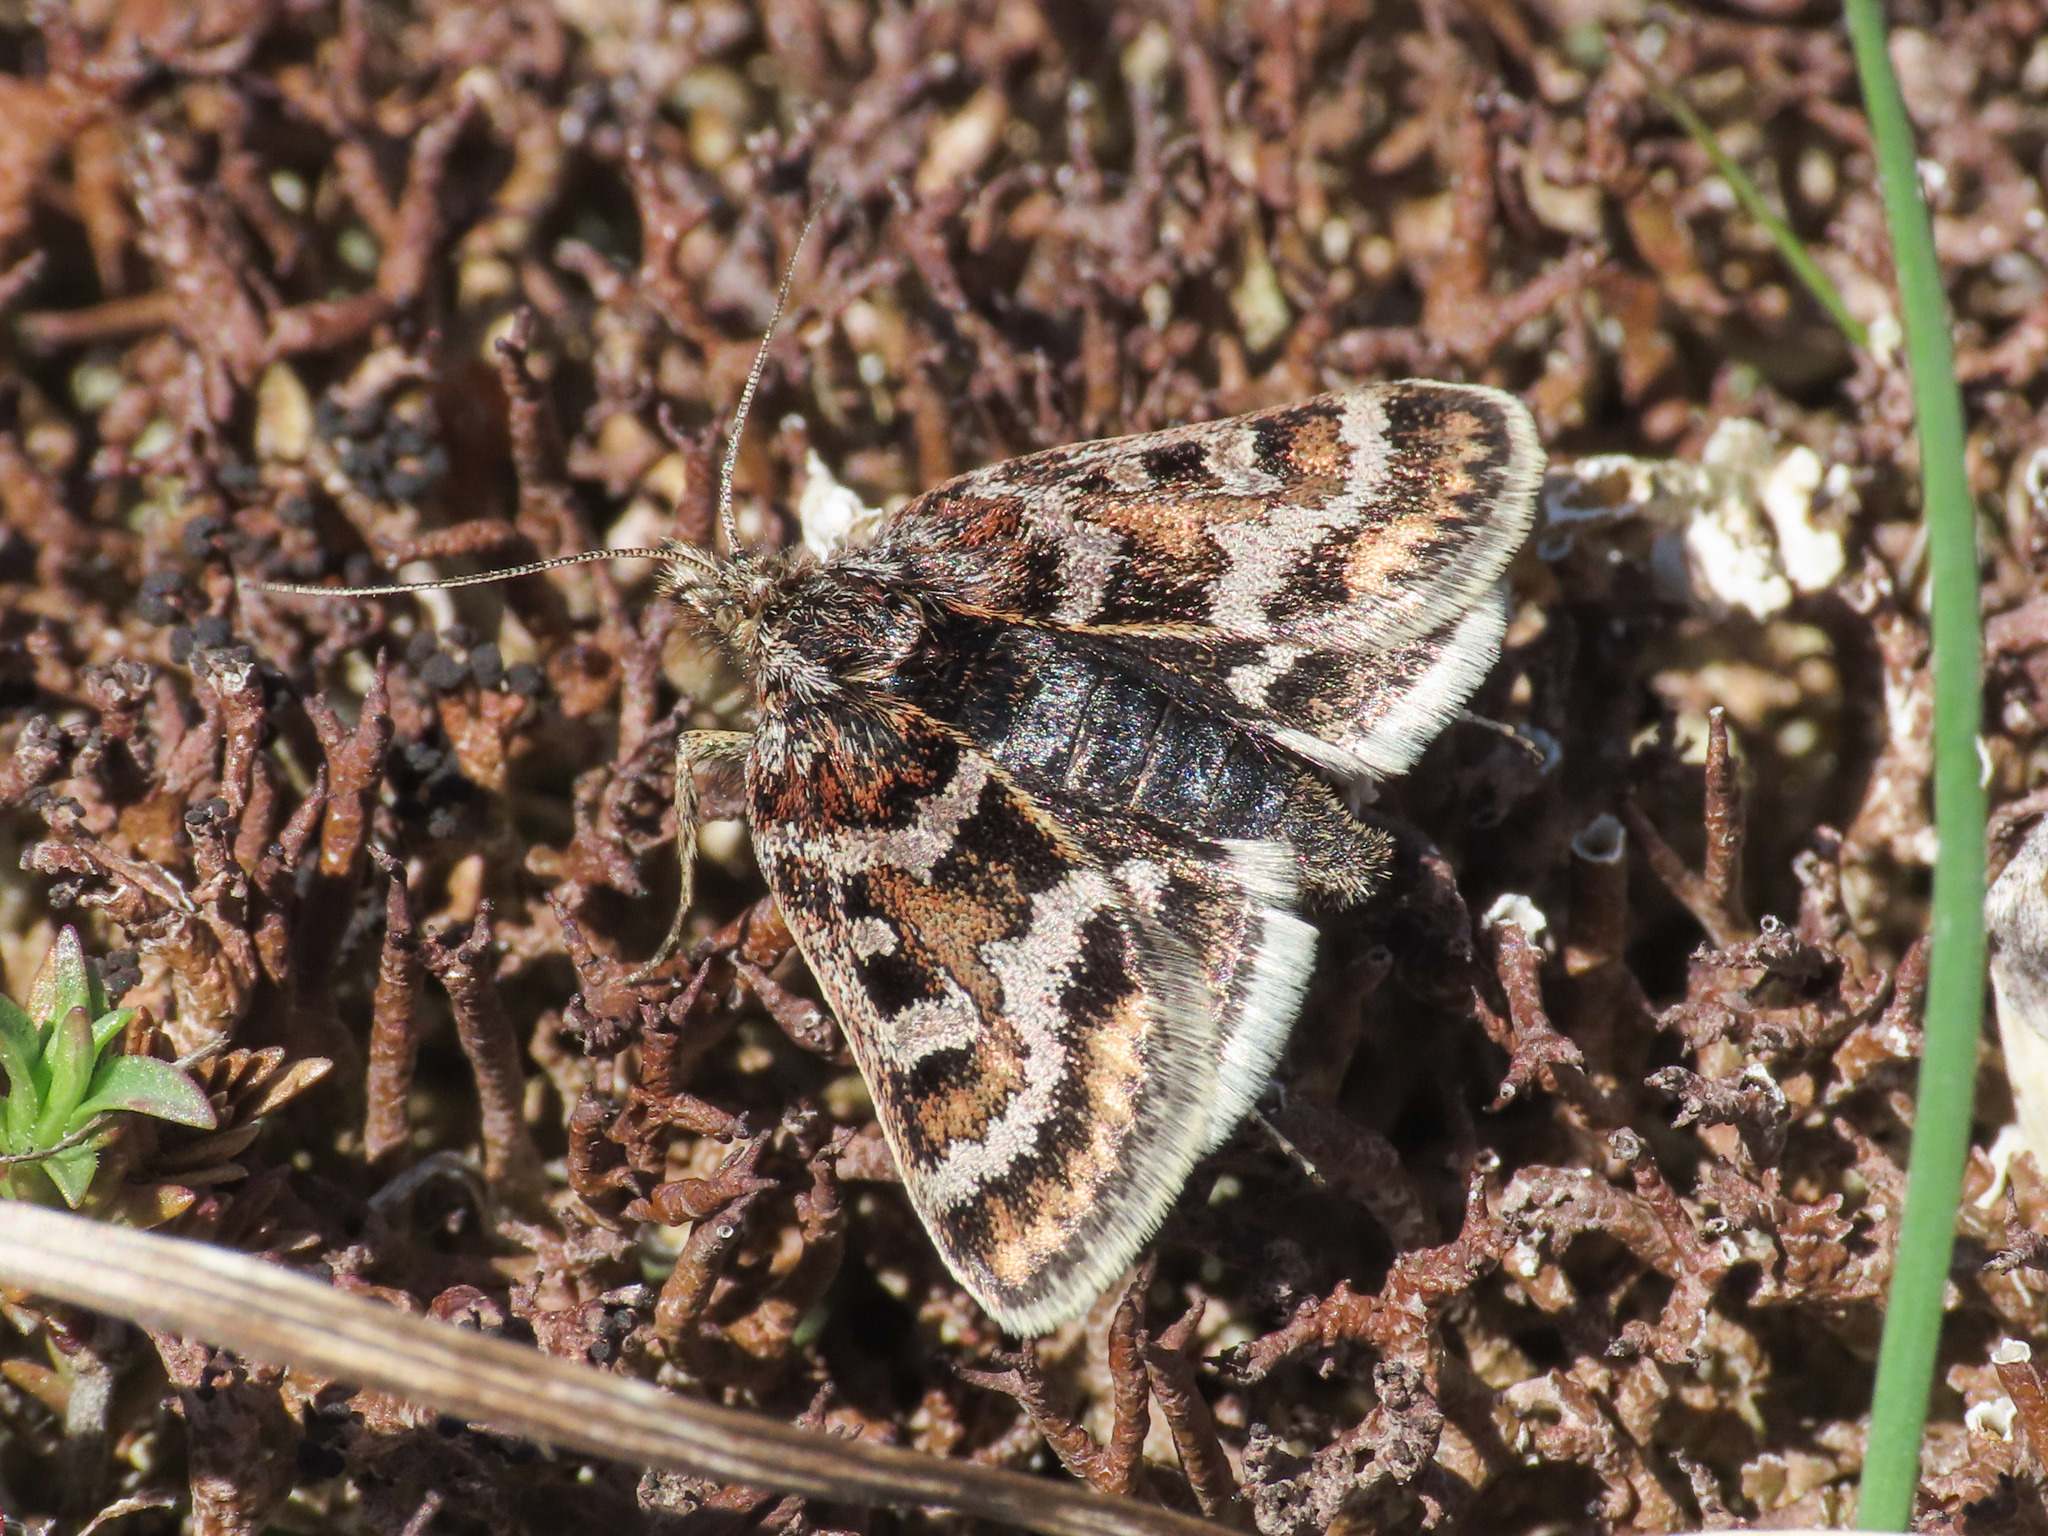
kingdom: Animalia
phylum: Arthropoda
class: Insecta
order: Lepidoptera
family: Crambidae
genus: Metaxmeste
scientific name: Metaxmeste schrankiana
